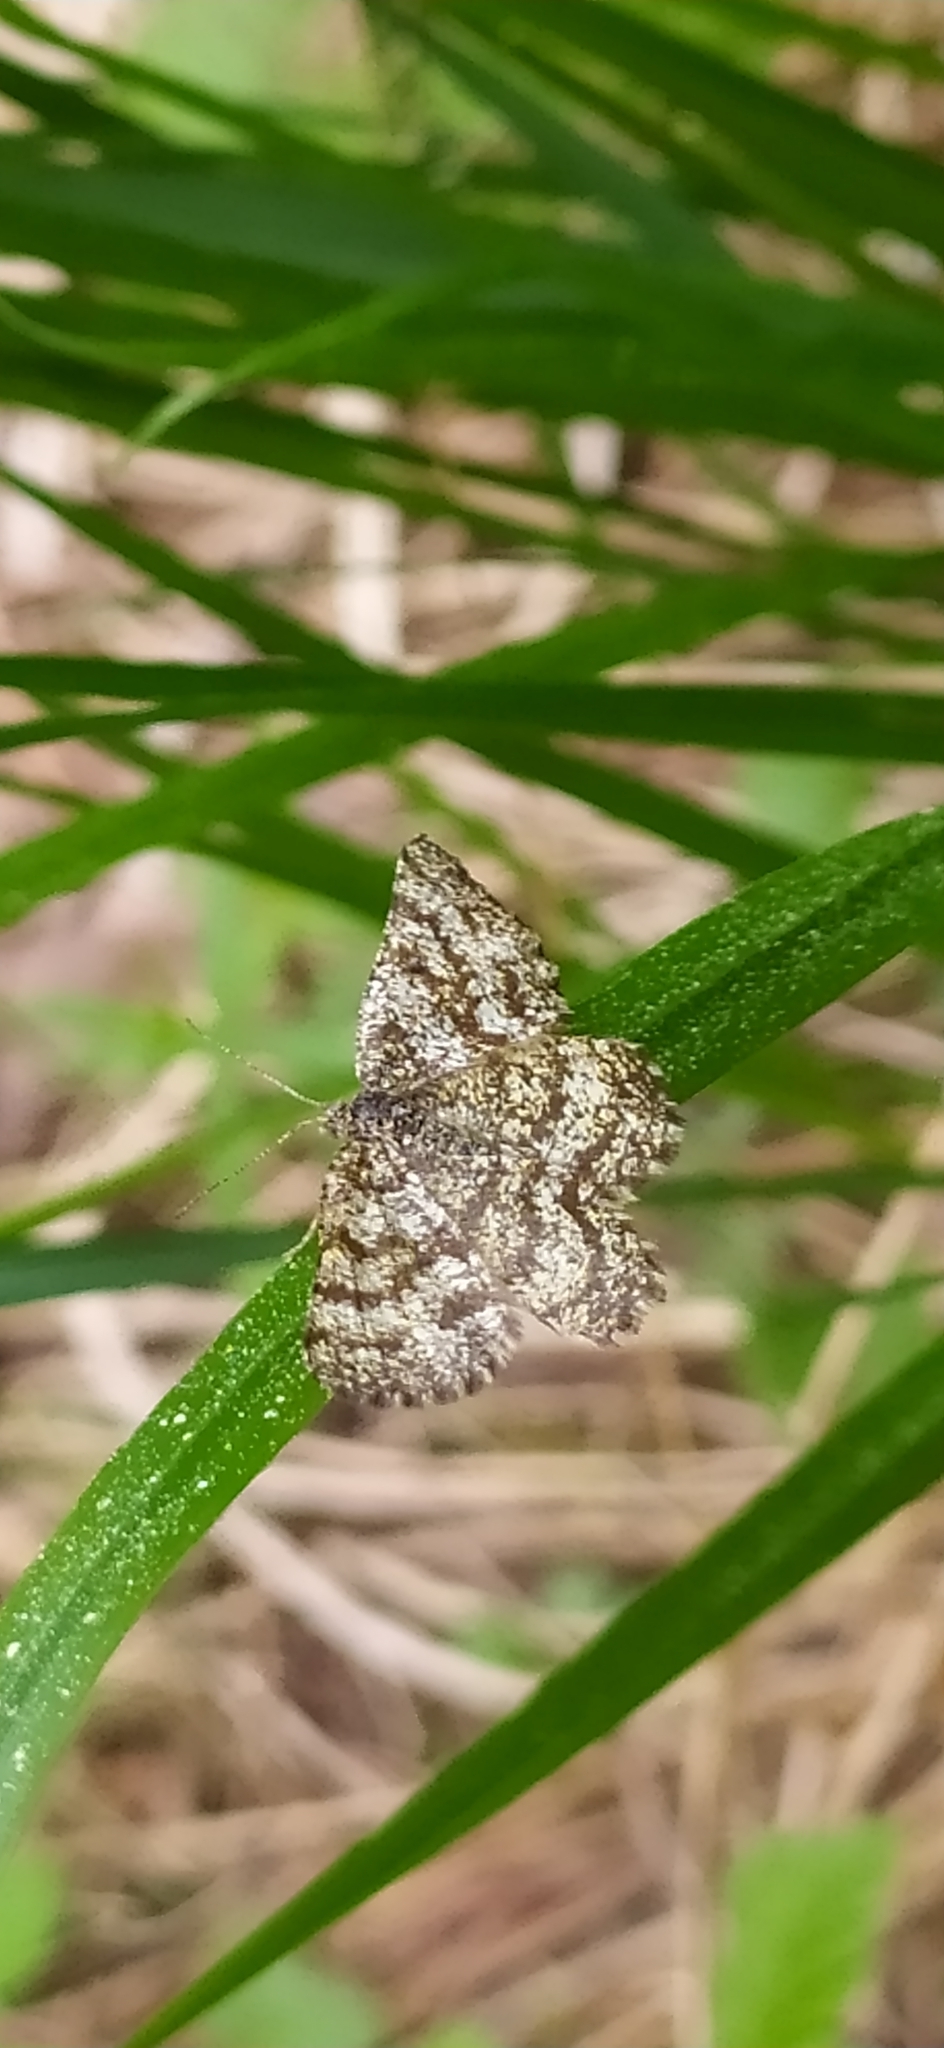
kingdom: Animalia
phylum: Arthropoda
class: Insecta
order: Lepidoptera
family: Geometridae
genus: Ematurga
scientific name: Ematurga atomaria
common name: Common heath
